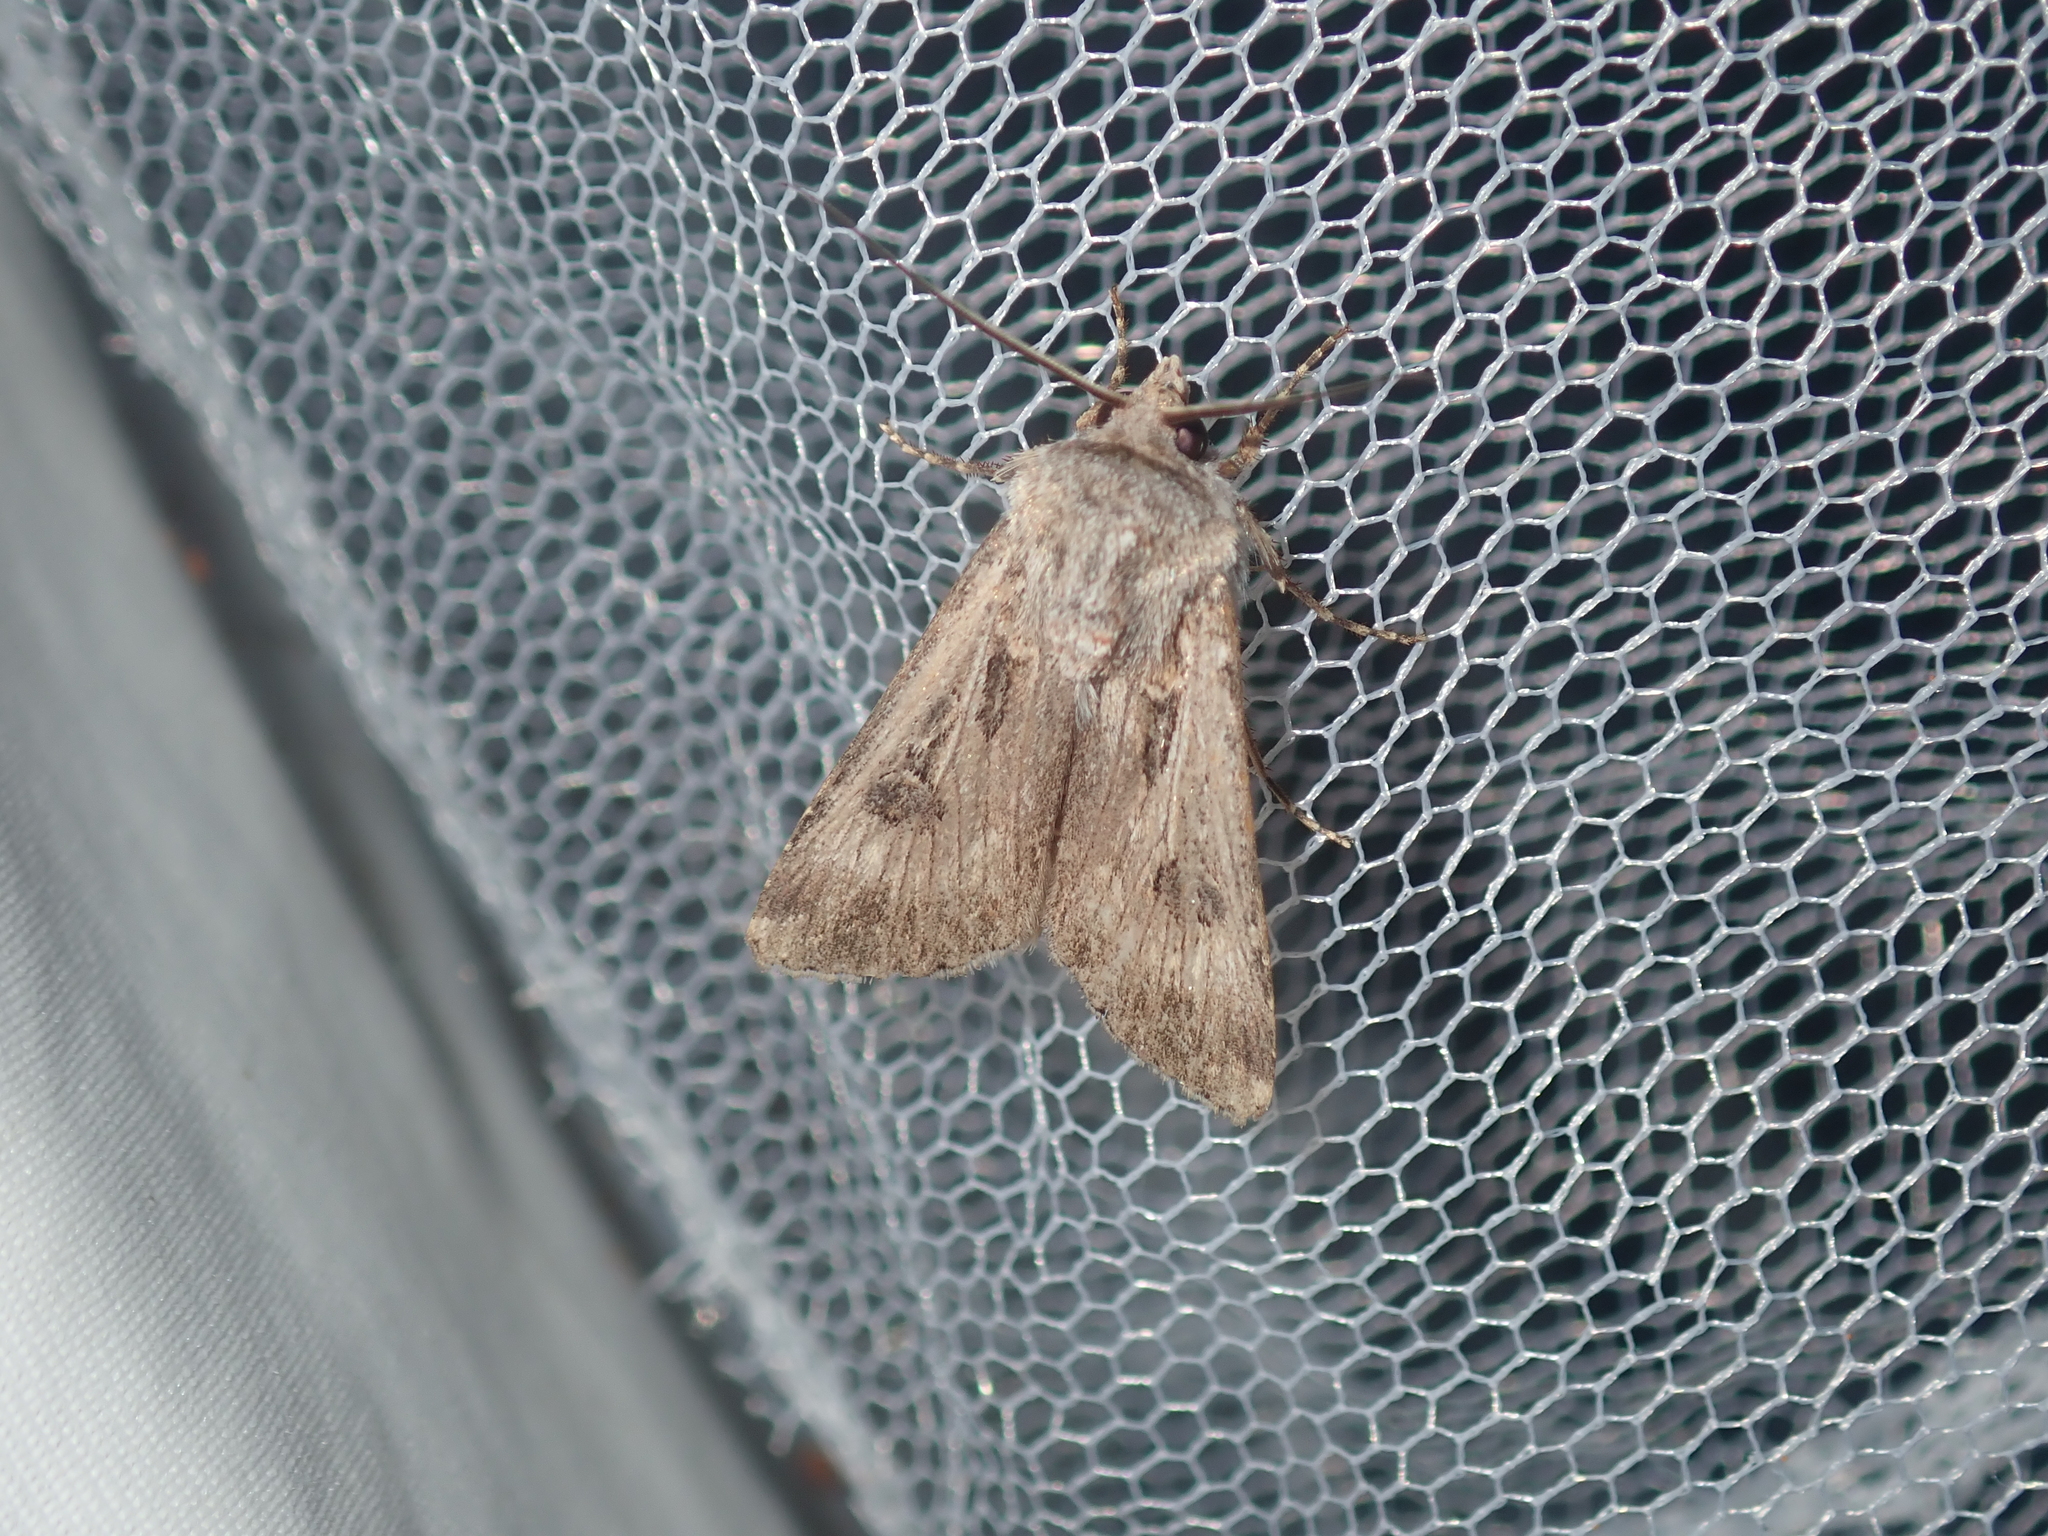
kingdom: Animalia
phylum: Arthropoda
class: Insecta
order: Lepidoptera
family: Noctuidae
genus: Agrotis
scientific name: Agrotis munda
